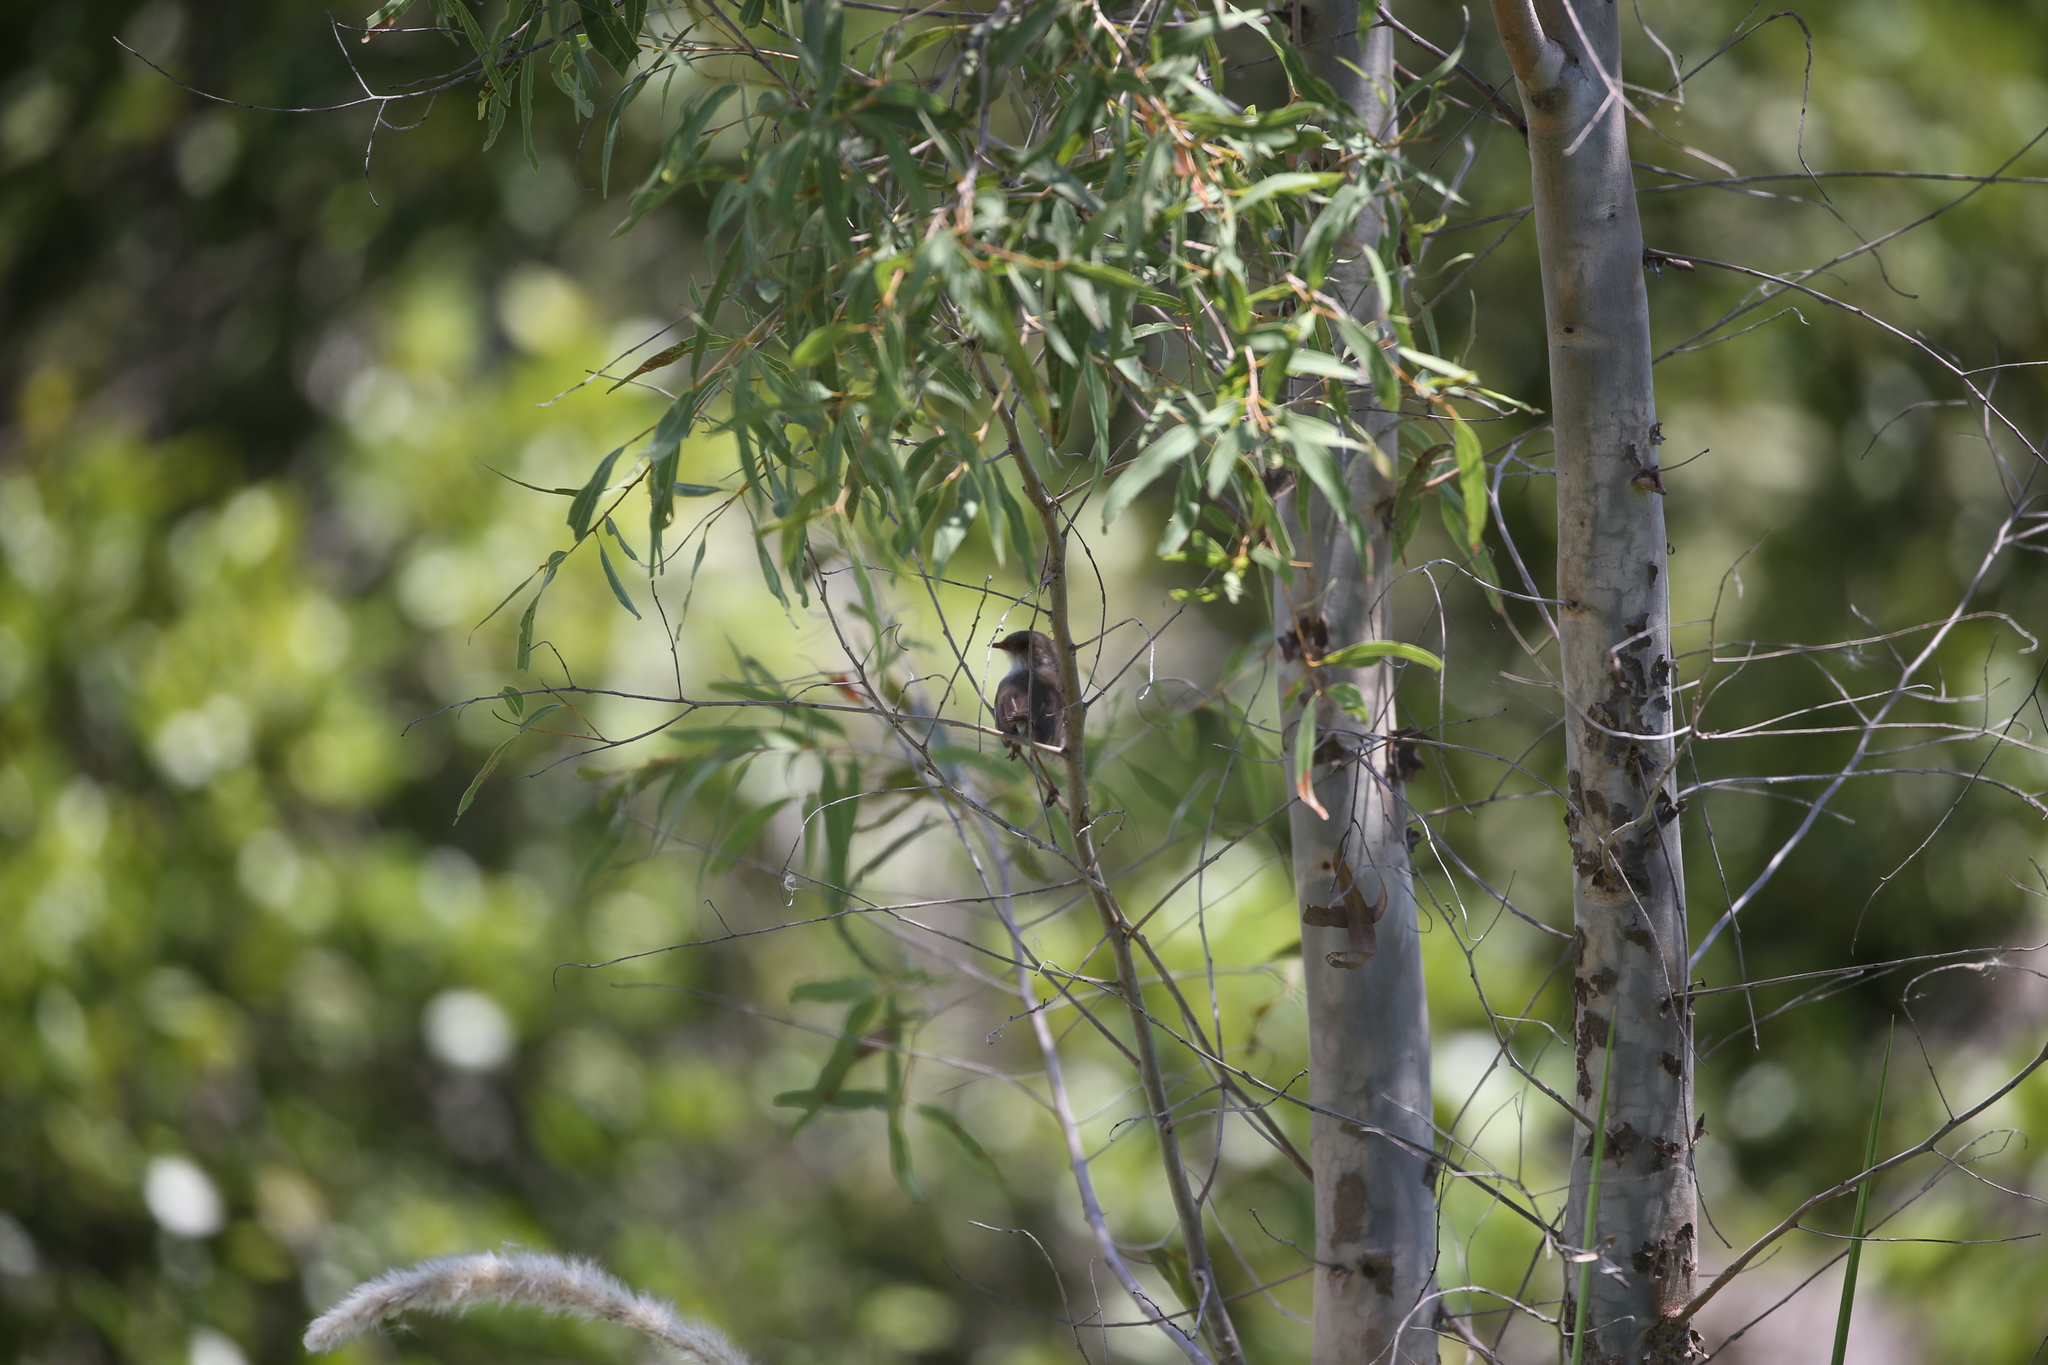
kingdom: Animalia
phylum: Chordata
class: Aves
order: Passeriformes
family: Maluridae
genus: Malurus
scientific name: Malurus cyaneus
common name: Superb fairywren
